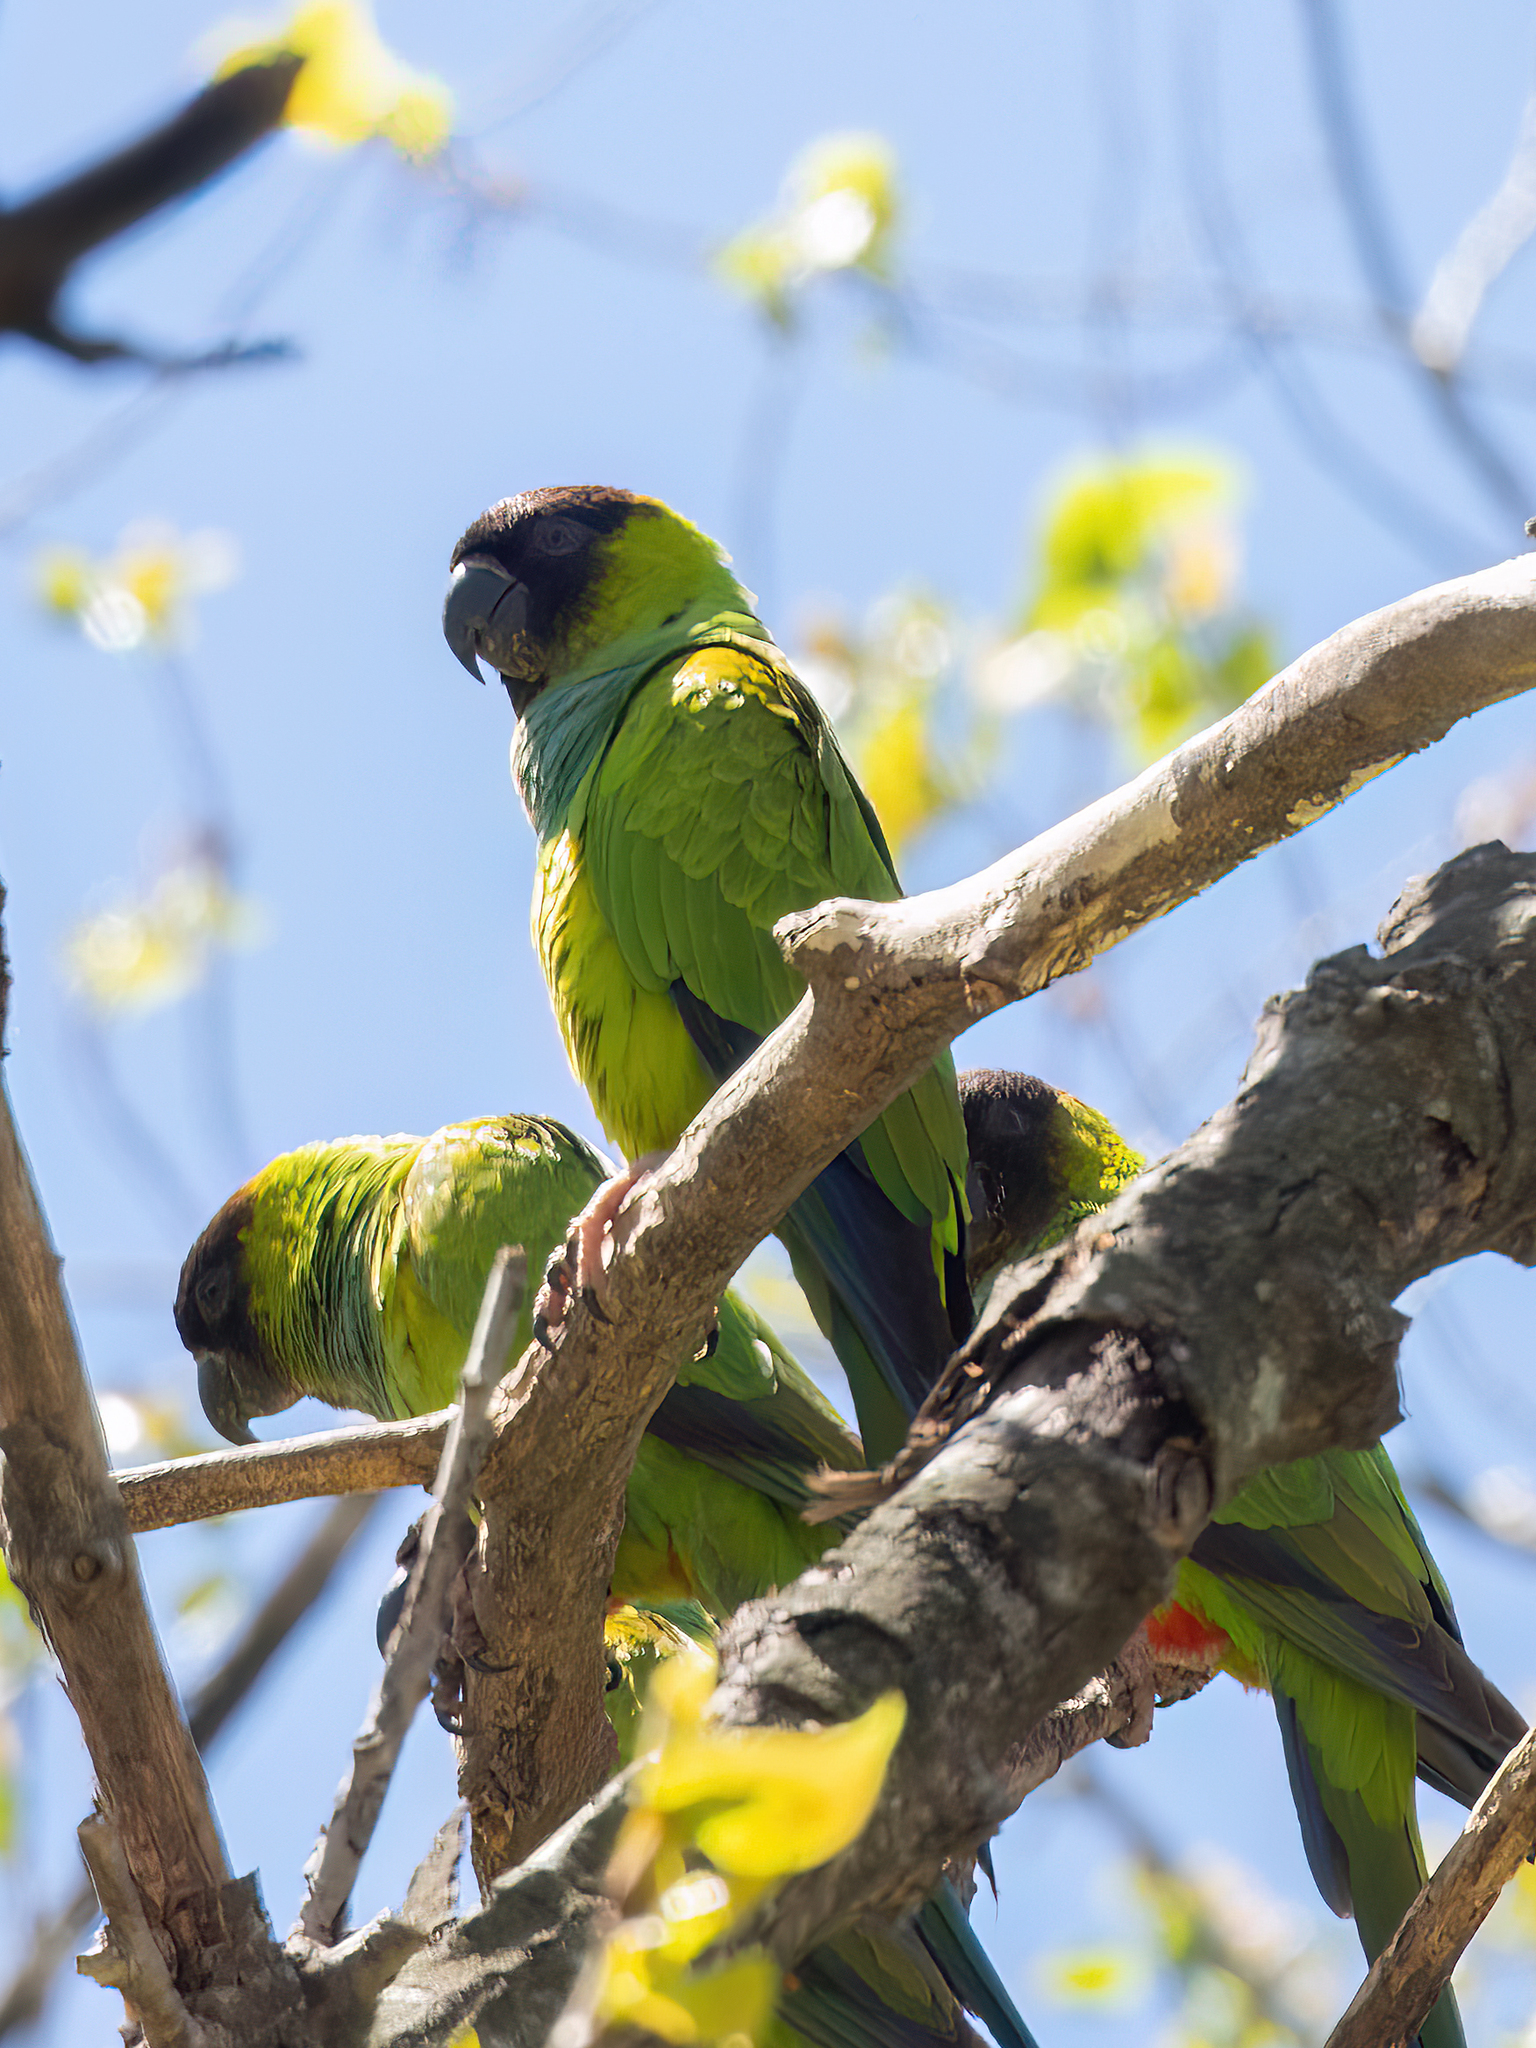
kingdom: Animalia
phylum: Chordata
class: Aves
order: Psittaciformes
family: Psittacidae
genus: Nandayus
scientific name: Nandayus nenday
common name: Nanday parakeet
